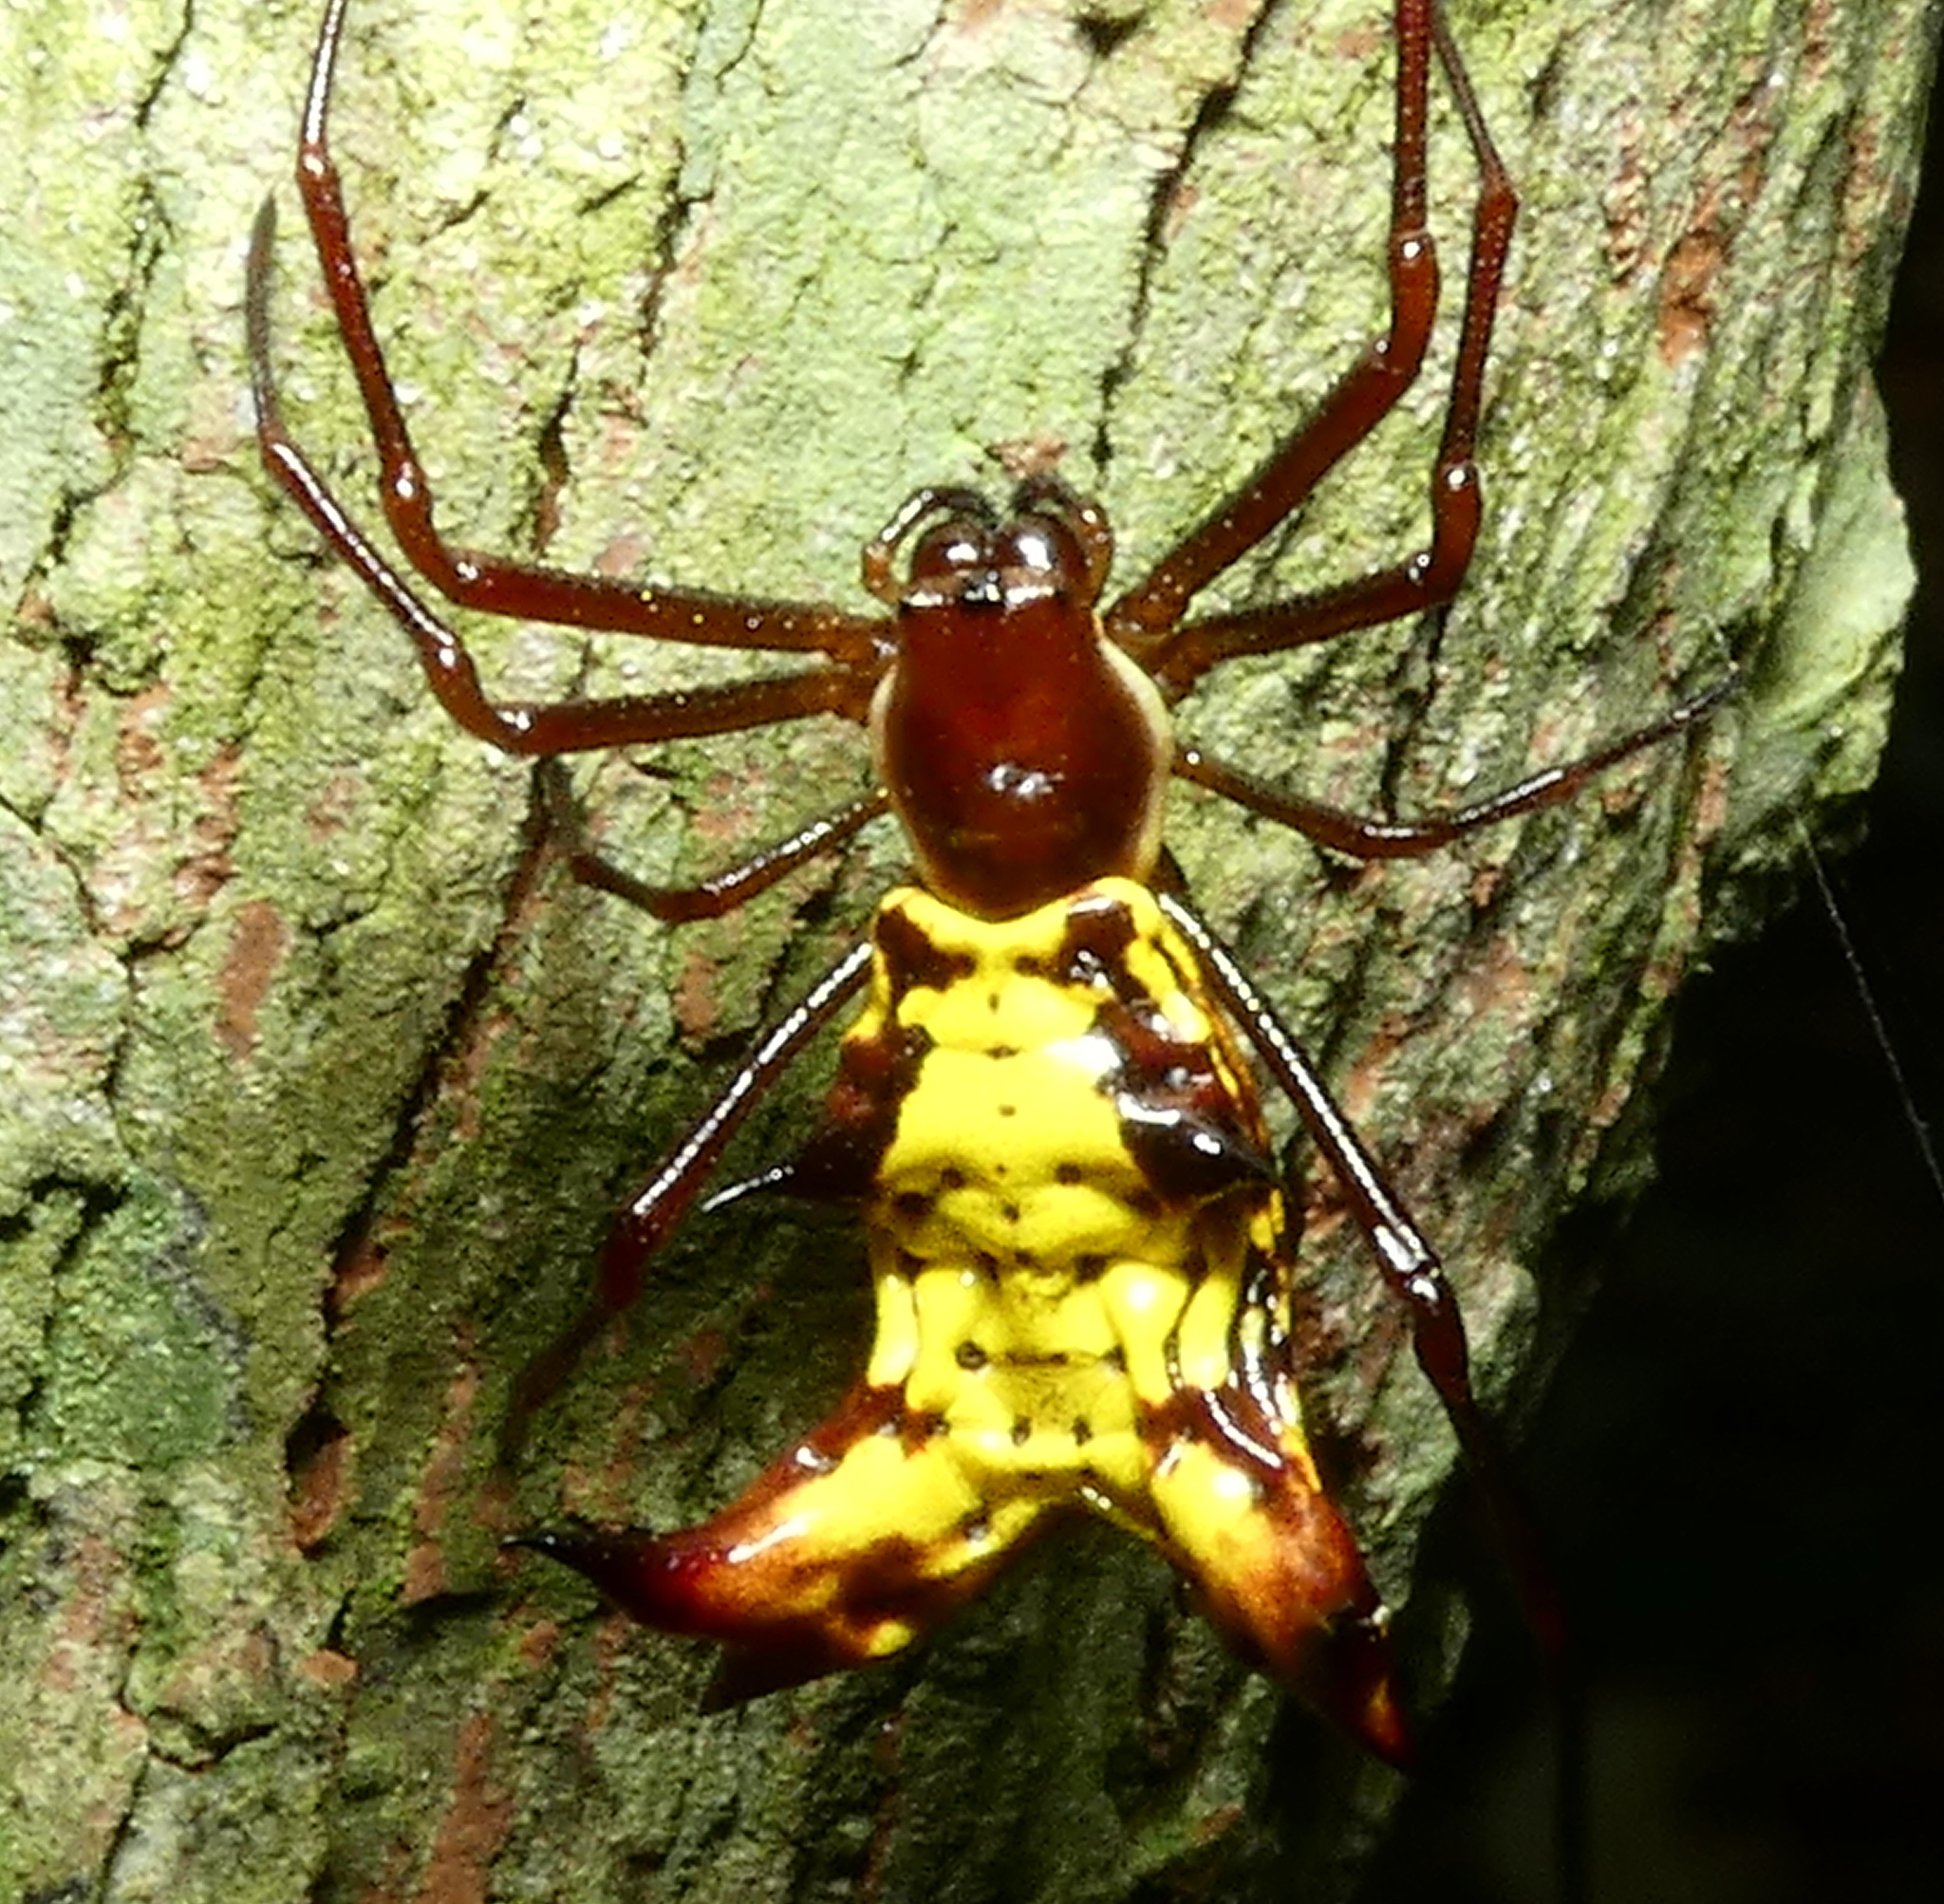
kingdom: Animalia
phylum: Arthropoda
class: Arachnida
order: Araneae
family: Araneidae
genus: Micrathena
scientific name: Micrathena fissispina
